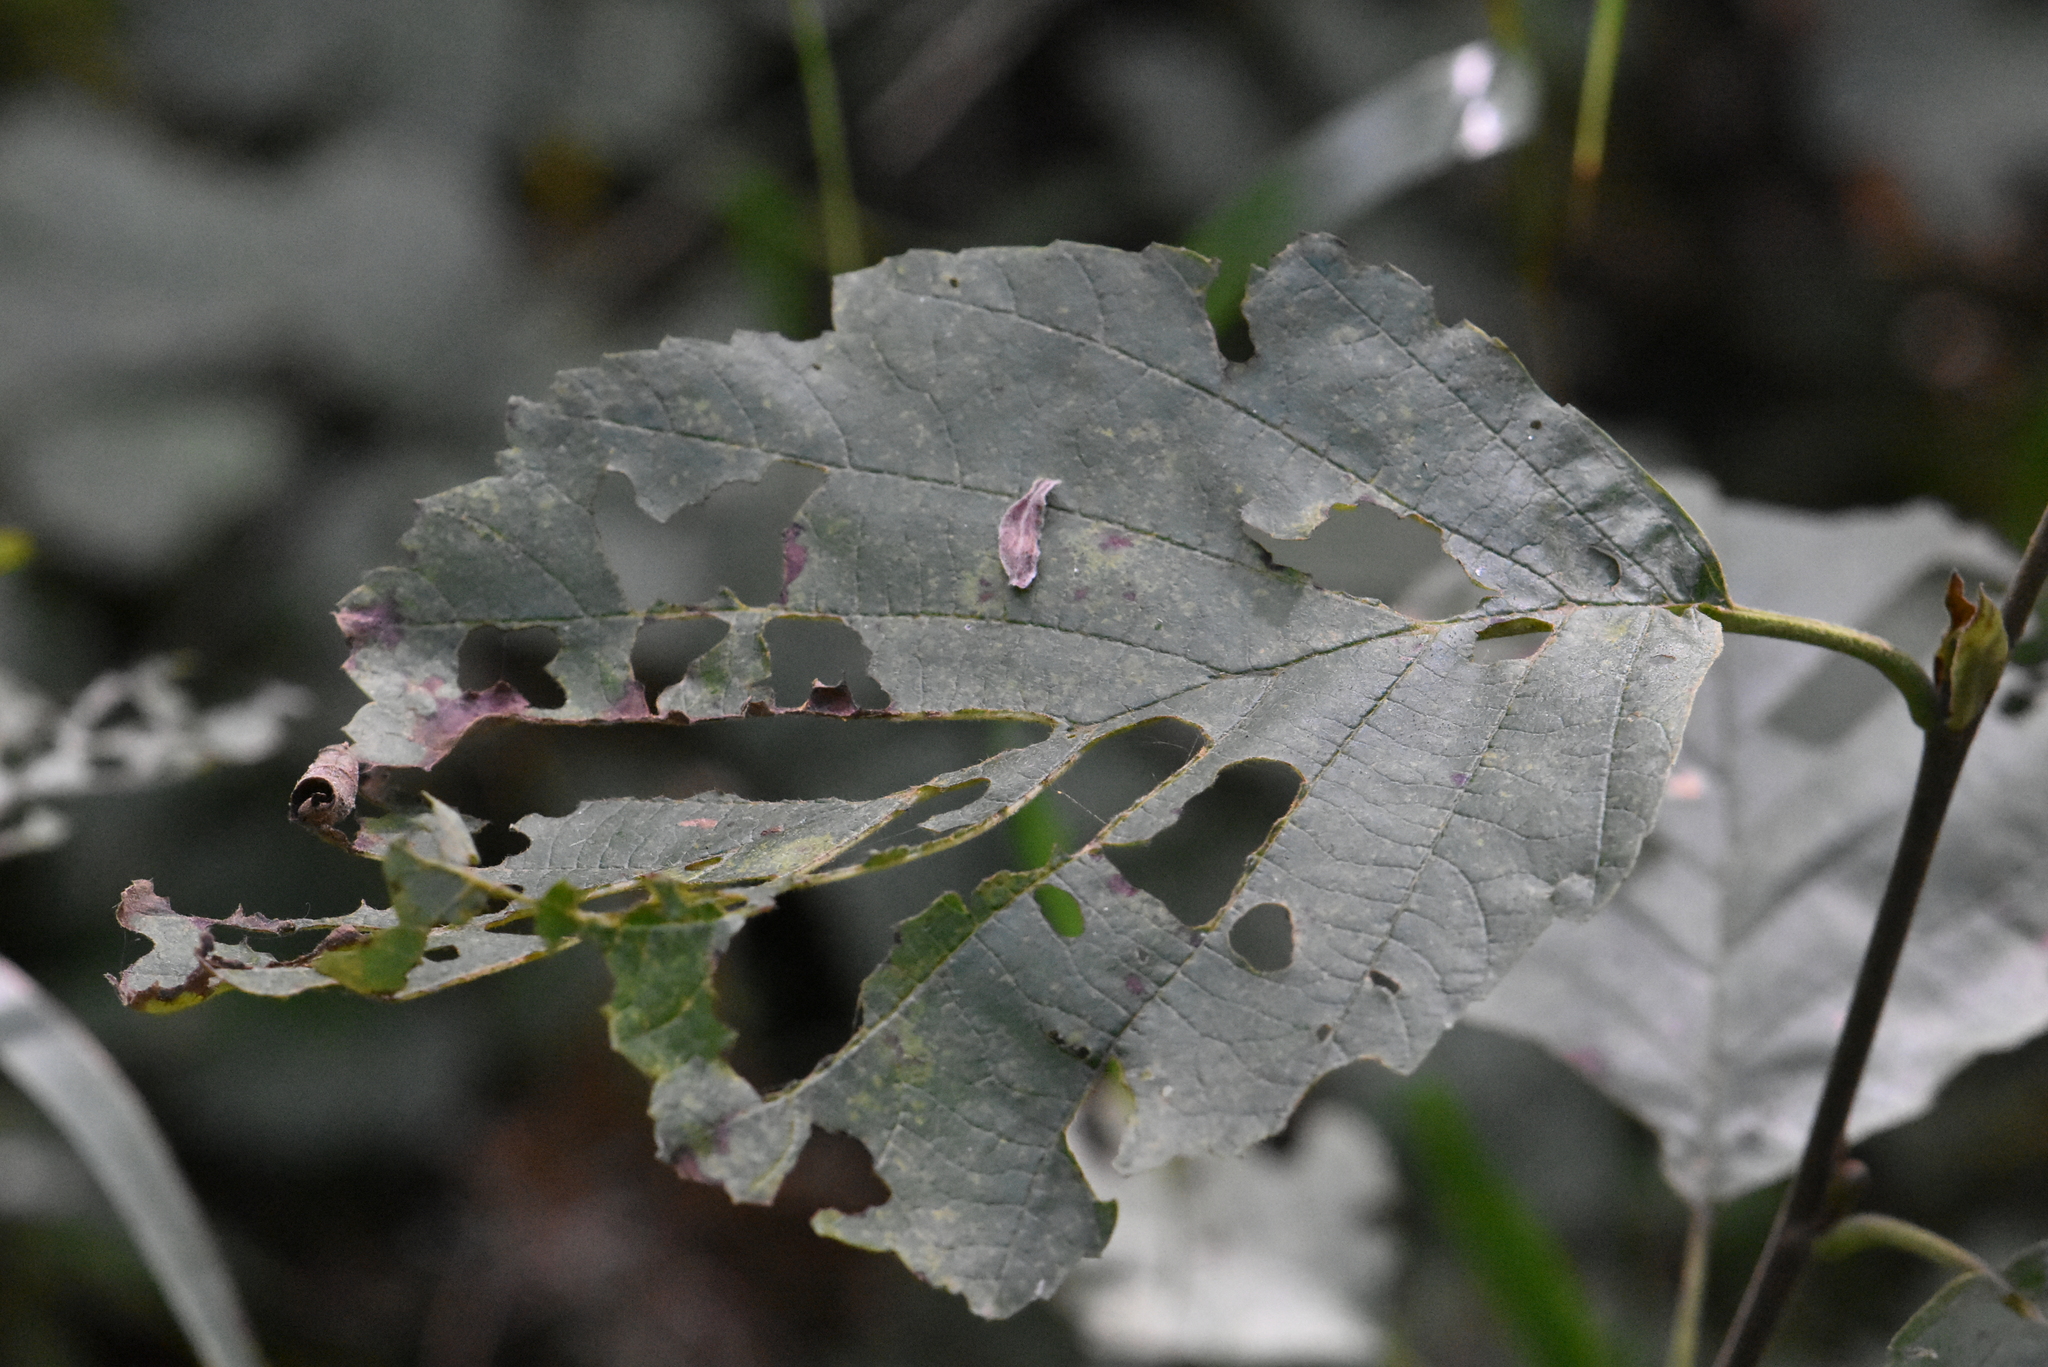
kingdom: Plantae
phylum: Tracheophyta
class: Magnoliopsida
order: Fagales
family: Betulaceae
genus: Alnus
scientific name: Alnus glutinosa
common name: Black alder
